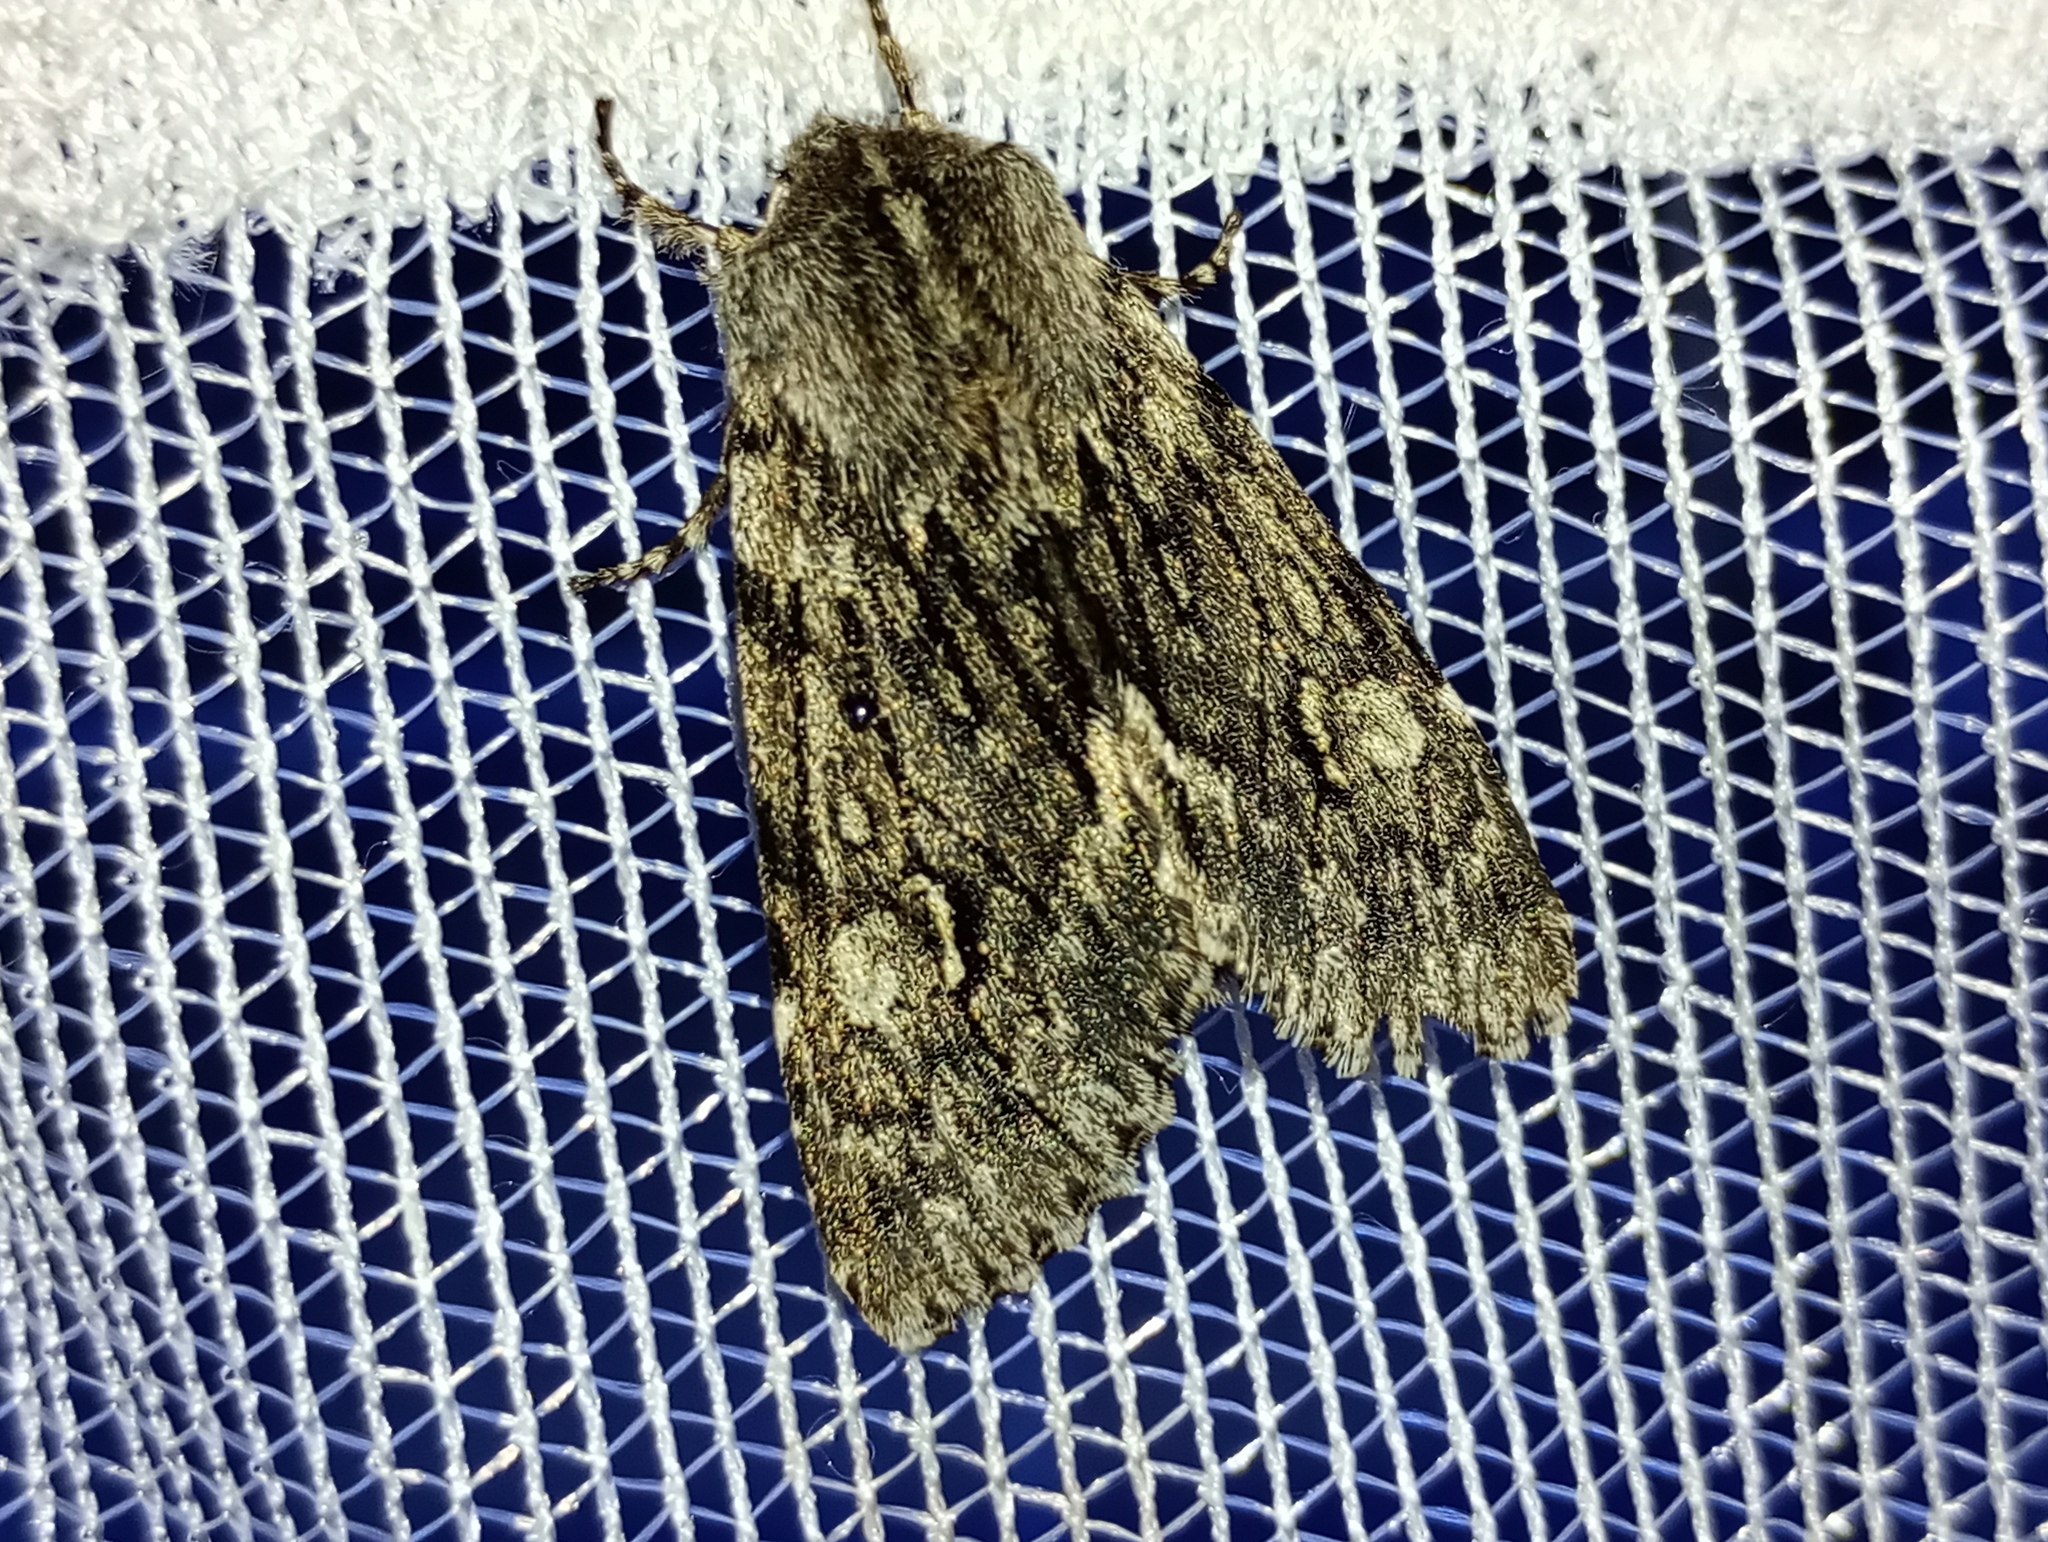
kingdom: Animalia
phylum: Arthropoda
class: Insecta
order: Lepidoptera
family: Noctuidae
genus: Brachionycha
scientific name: Brachionycha nubeculosa
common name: Rannoch sprawler
